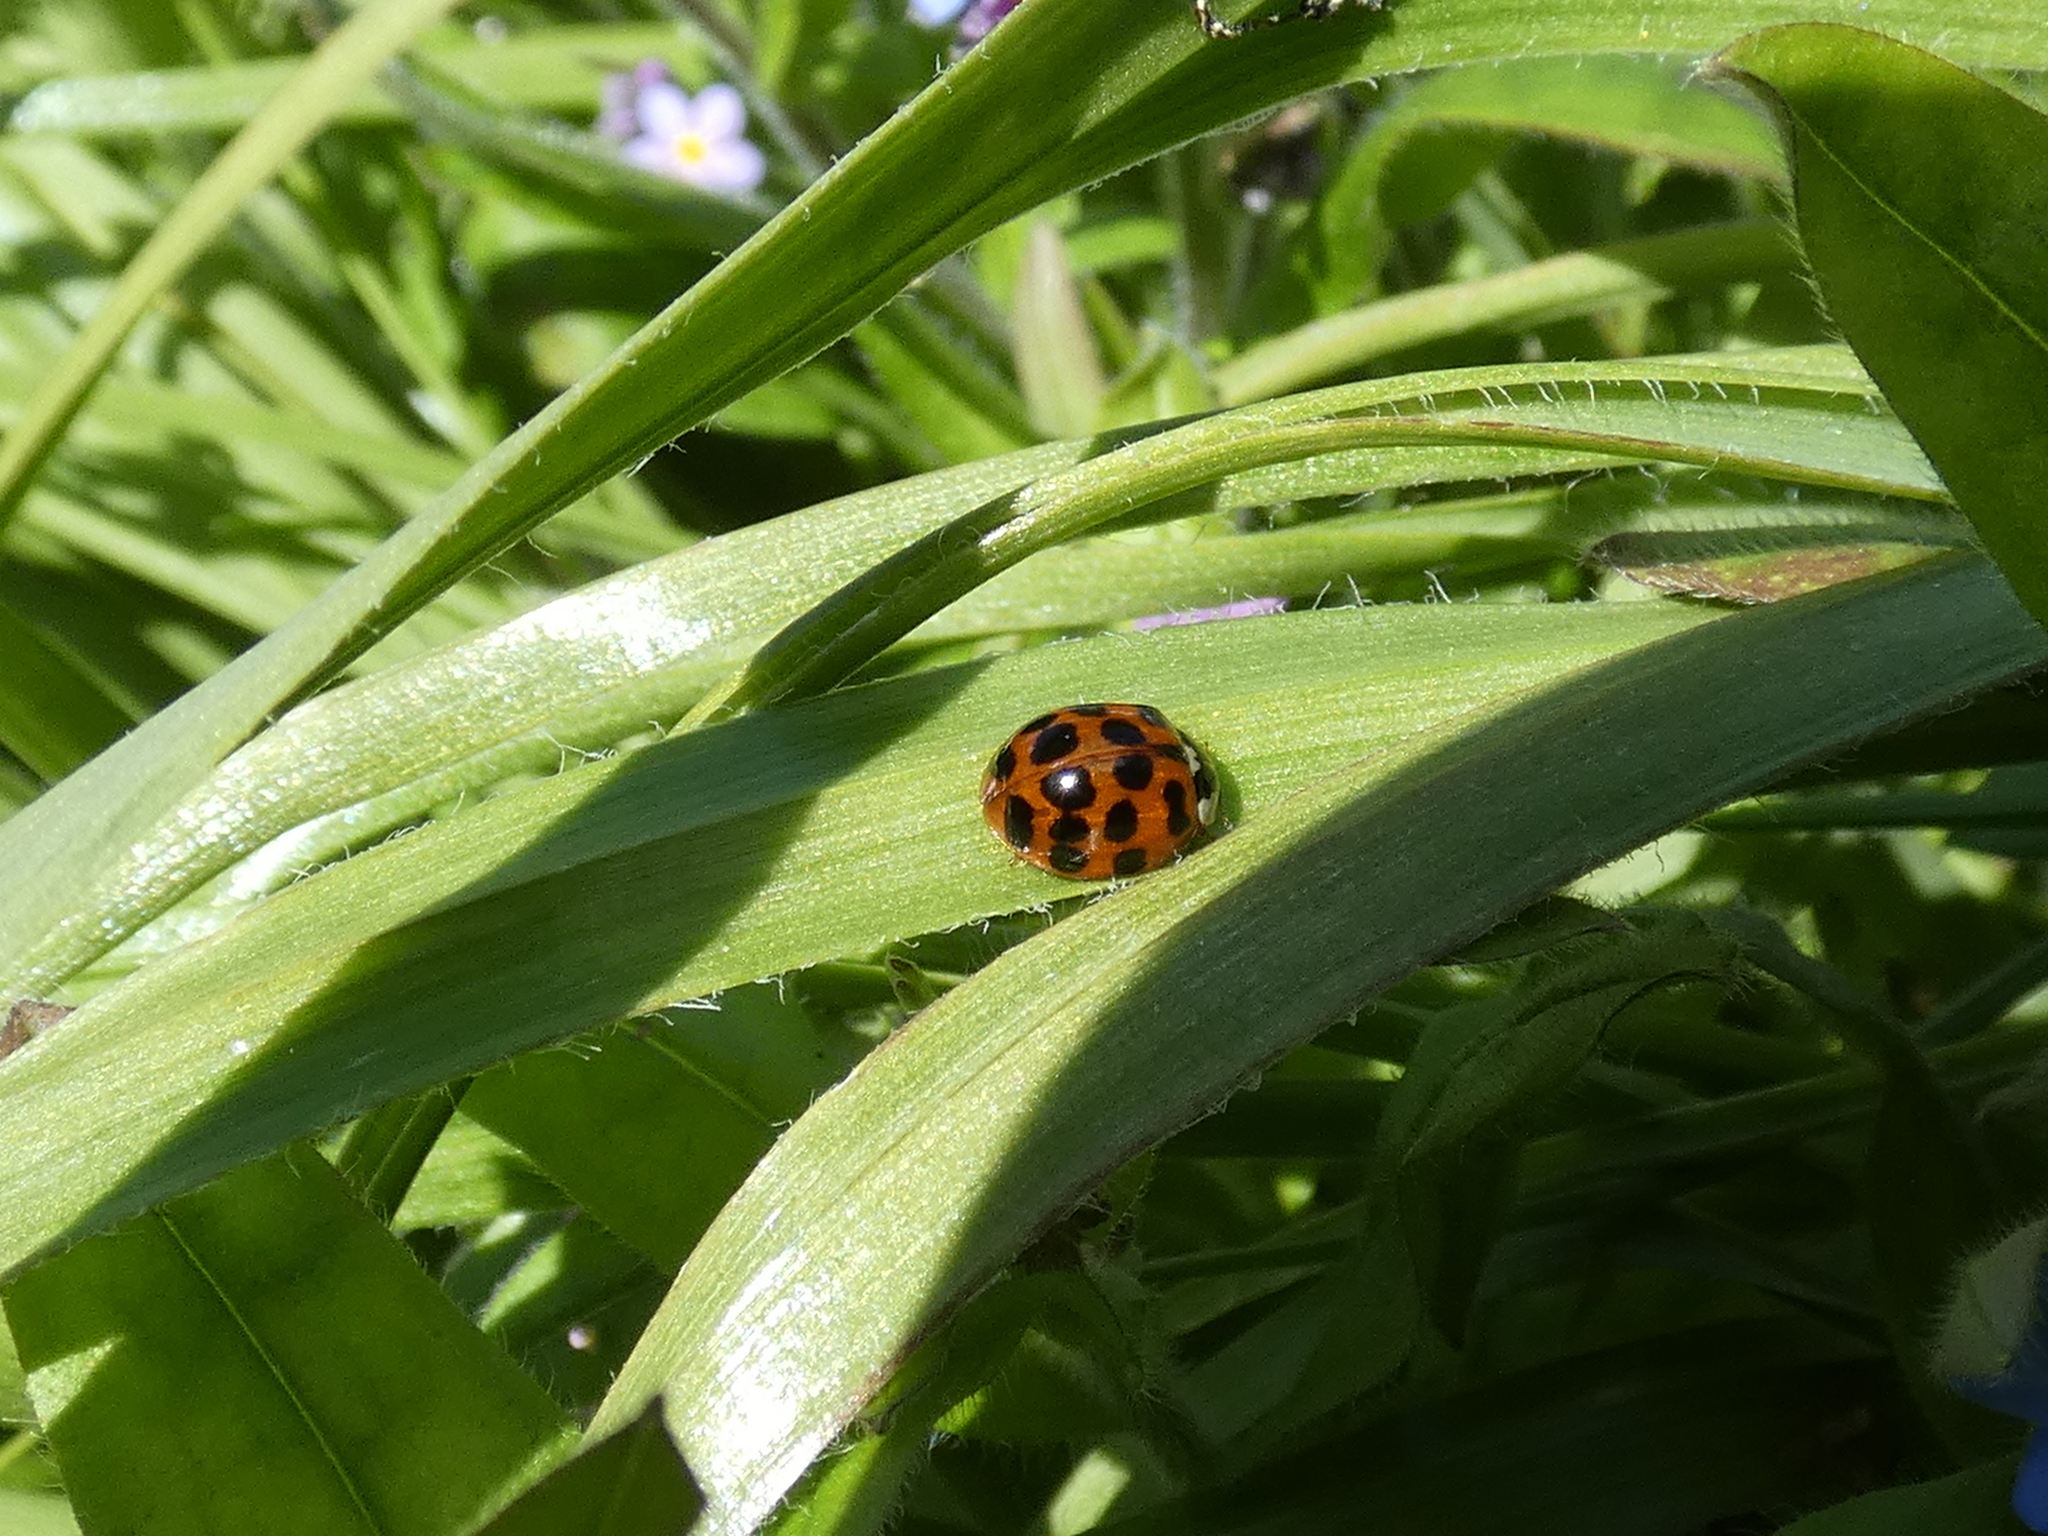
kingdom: Animalia
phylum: Arthropoda
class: Insecta
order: Coleoptera
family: Coccinellidae
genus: Harmonia
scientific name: Harmonia axyridis
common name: Harlequin ladybird
